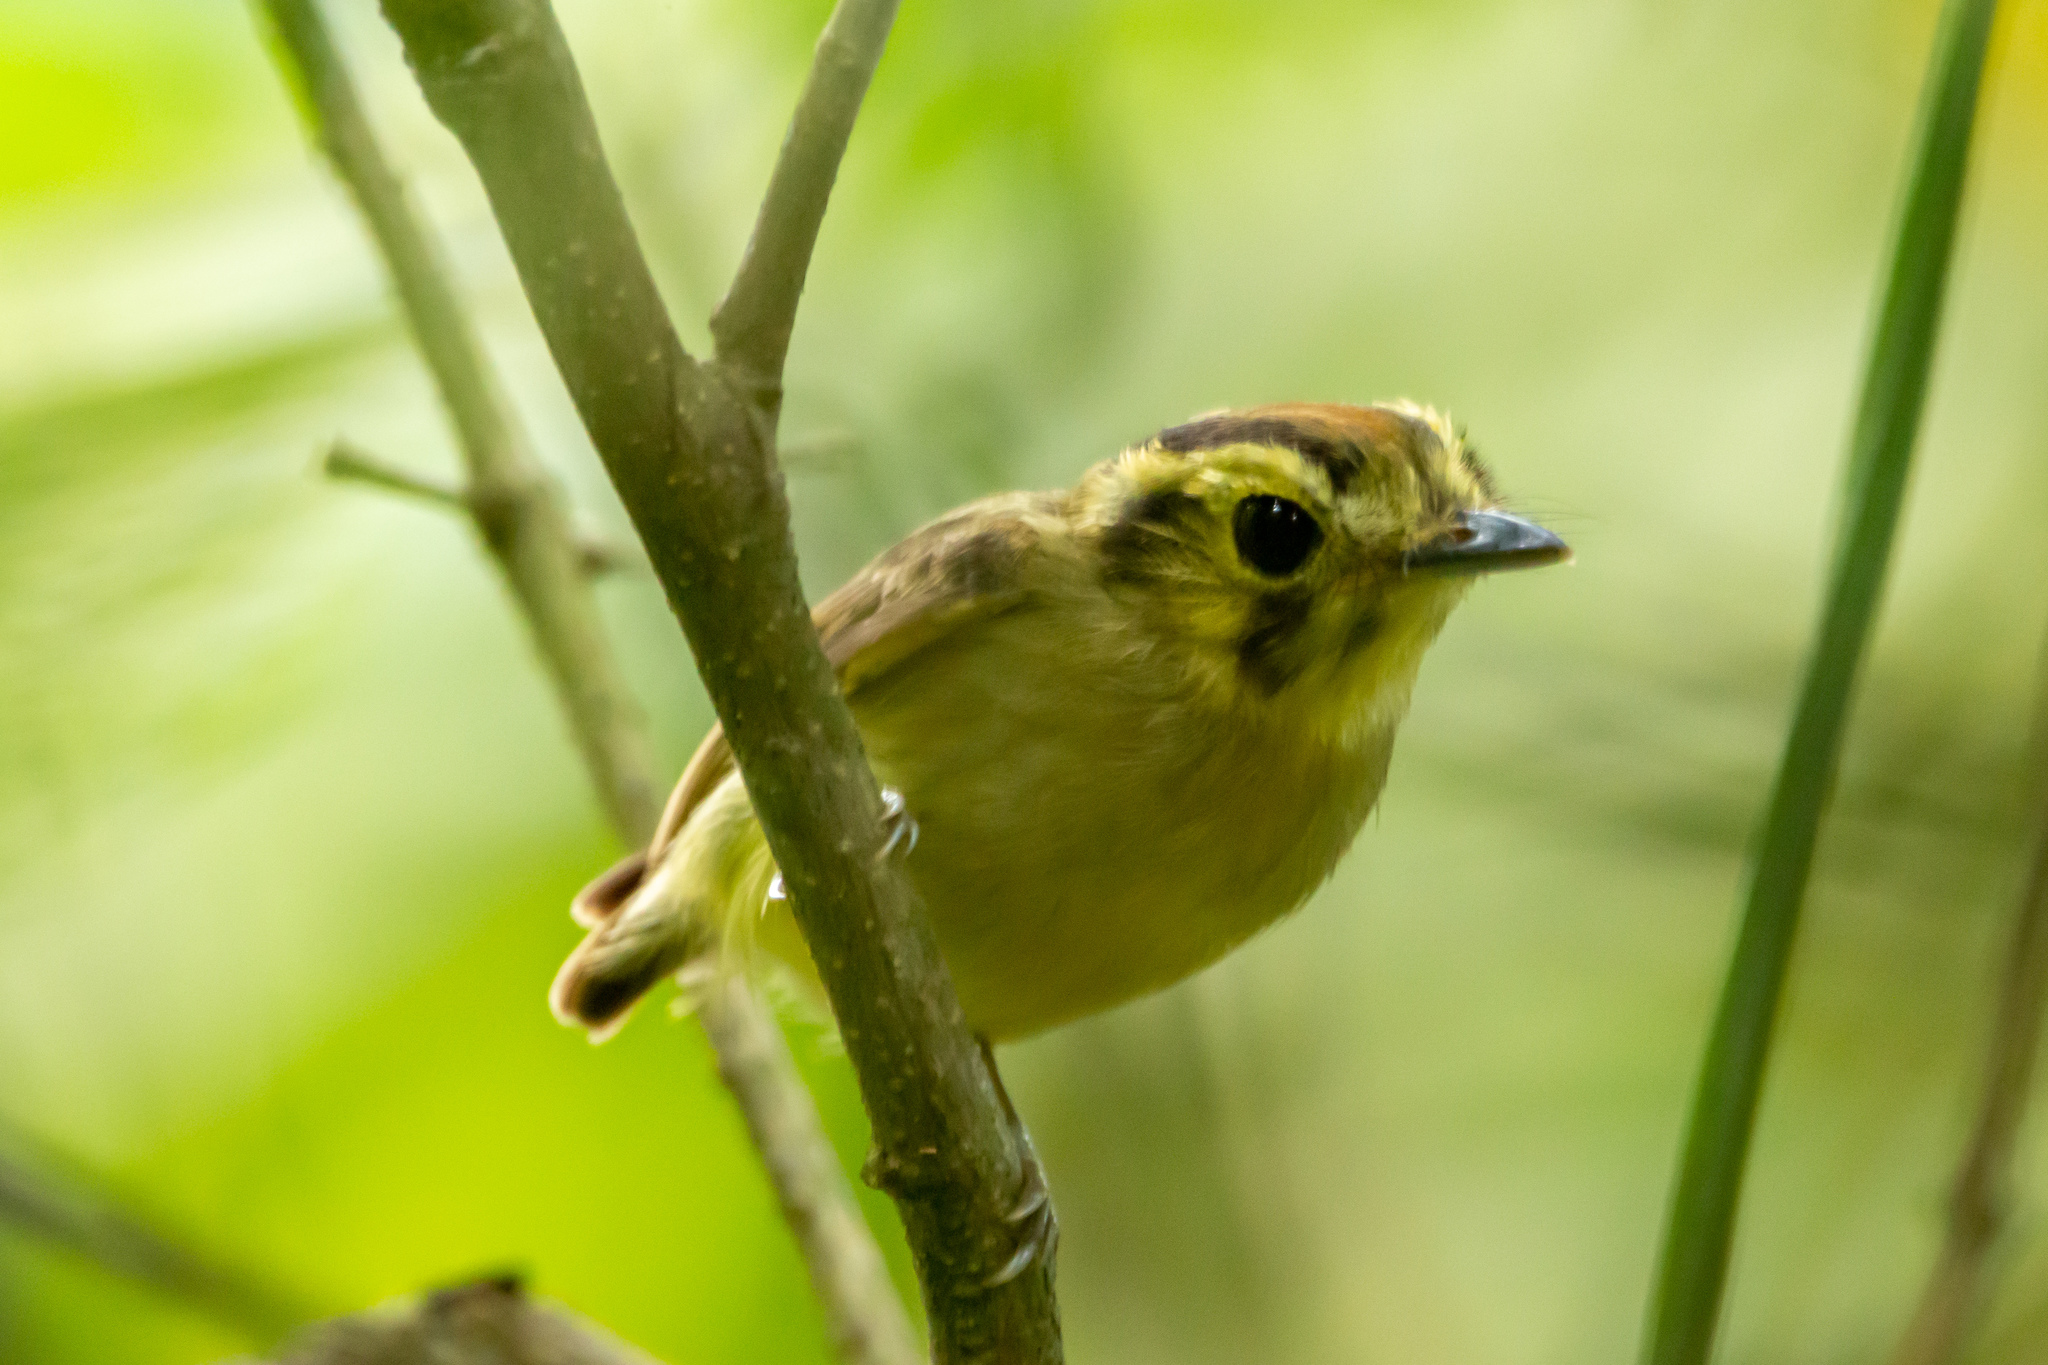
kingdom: Animalia
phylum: Chordata
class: Aves
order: Passeriformes
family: Tyrannidae
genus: Platyrinchus
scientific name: Platyrinchus coronatus
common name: Golden-crowned spadebill
